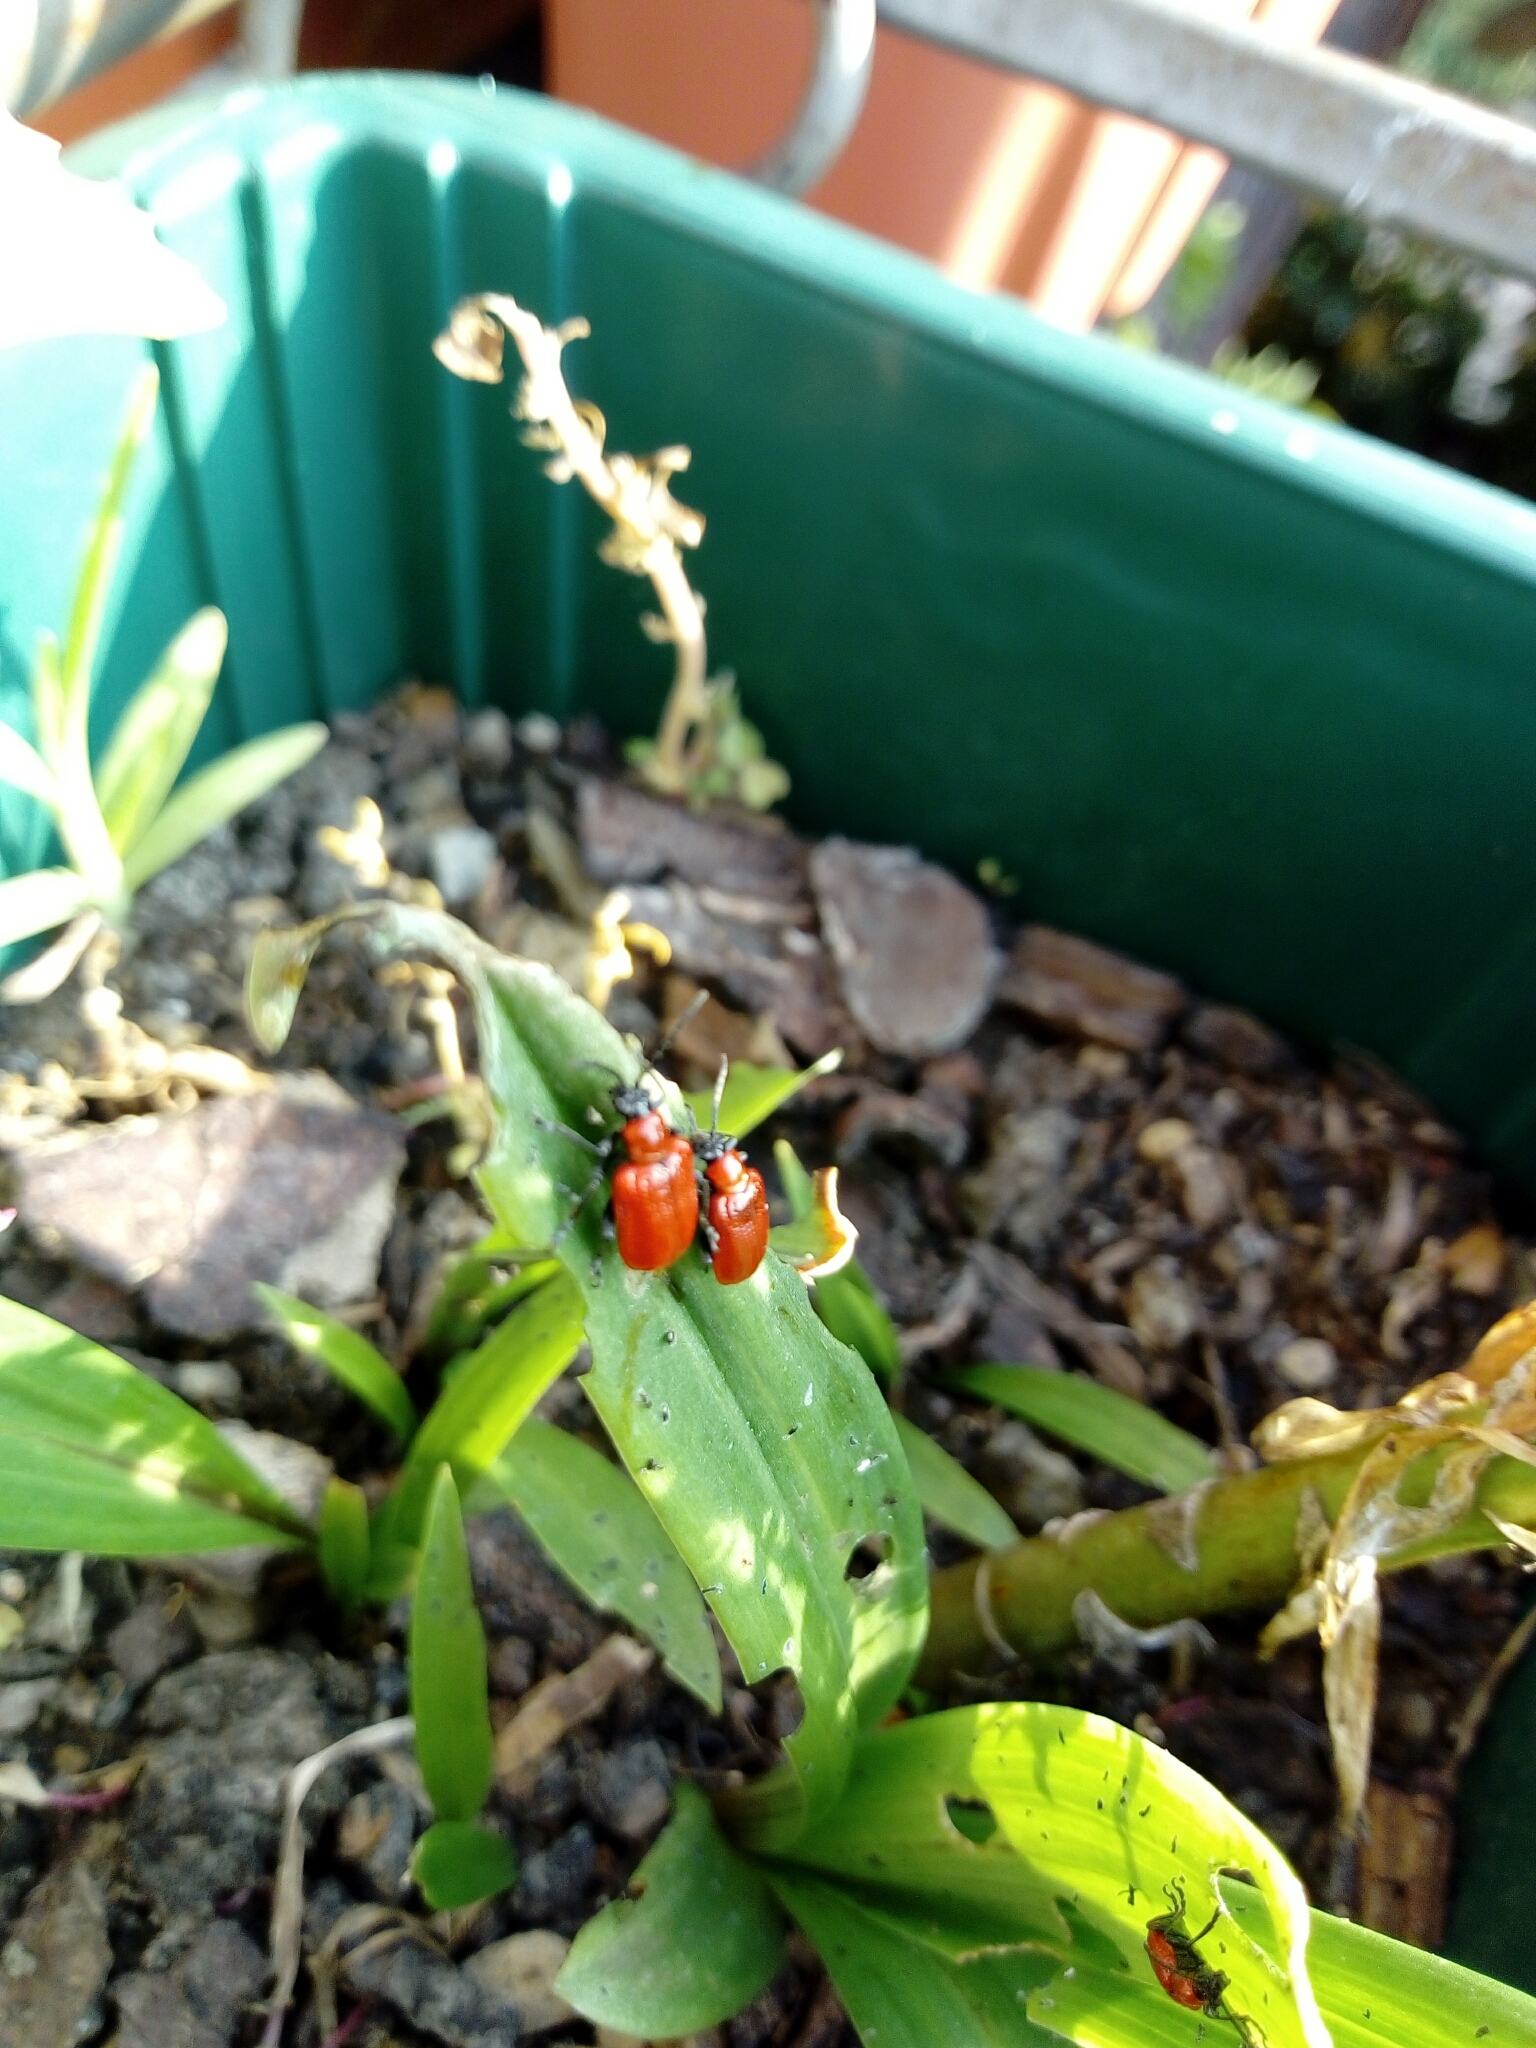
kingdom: Animalia
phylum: Arthropoda
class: Insecta
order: Coleoptera
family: Chrysomelidae
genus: Lilioceris
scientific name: Lilioceris lilii
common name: Lily beetle
